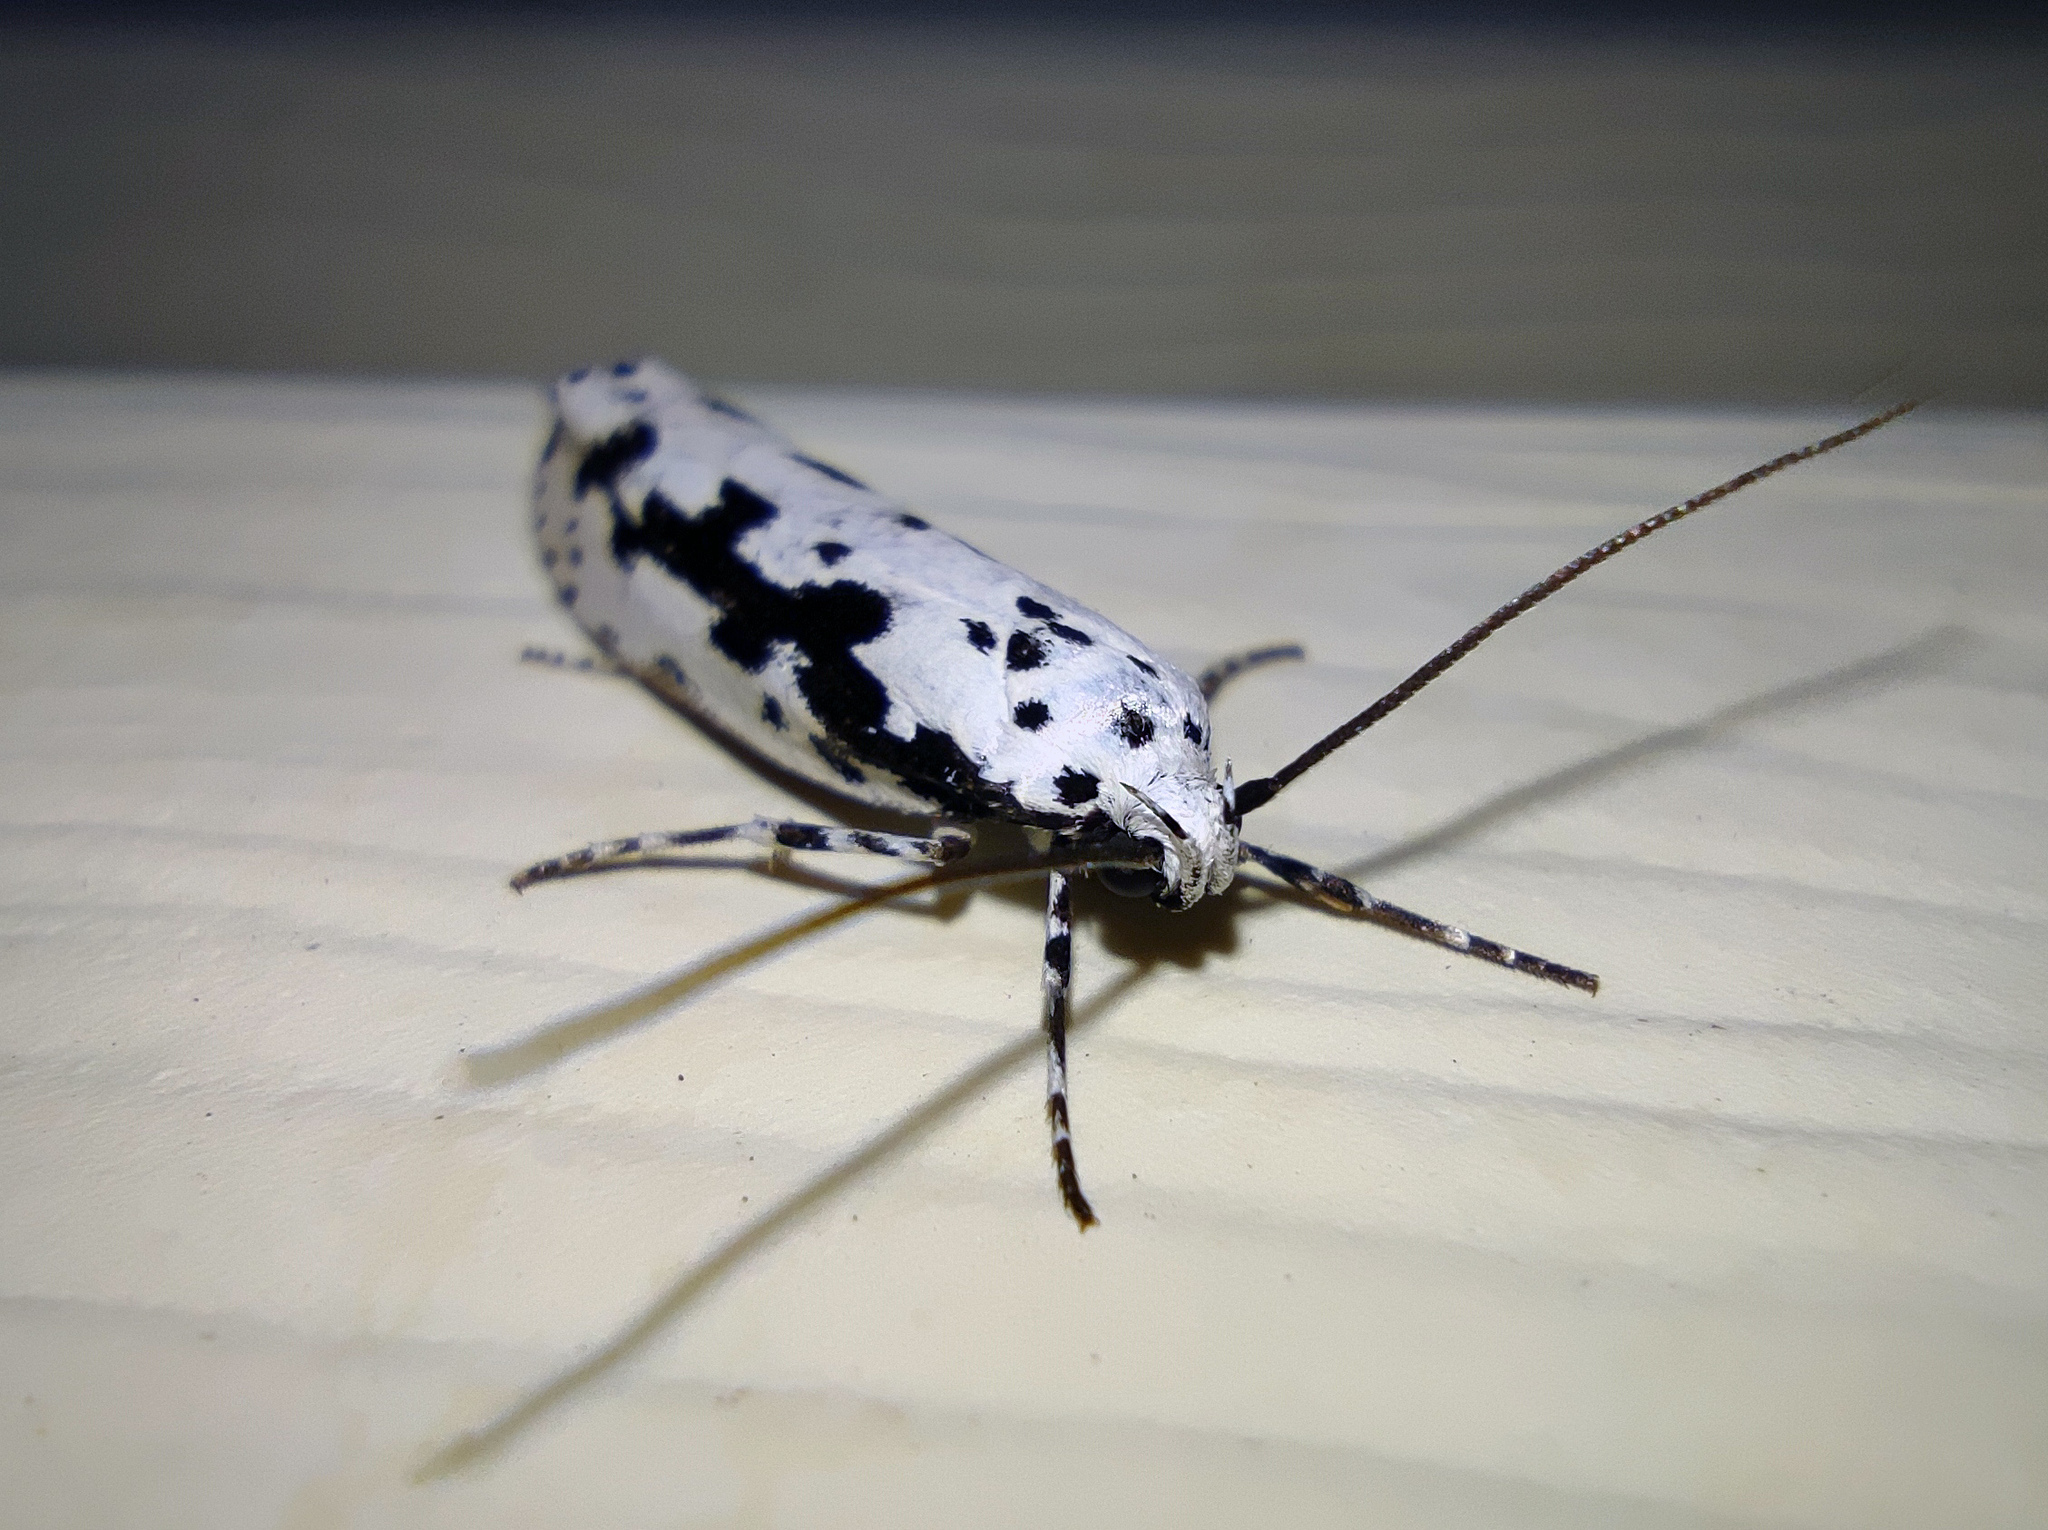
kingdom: Animalia
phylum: Arthropoda
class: Insecta
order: Lepidoptera
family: Ethmiidae
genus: Ethmia
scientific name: Ethmia pusiella
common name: Striped ermel
